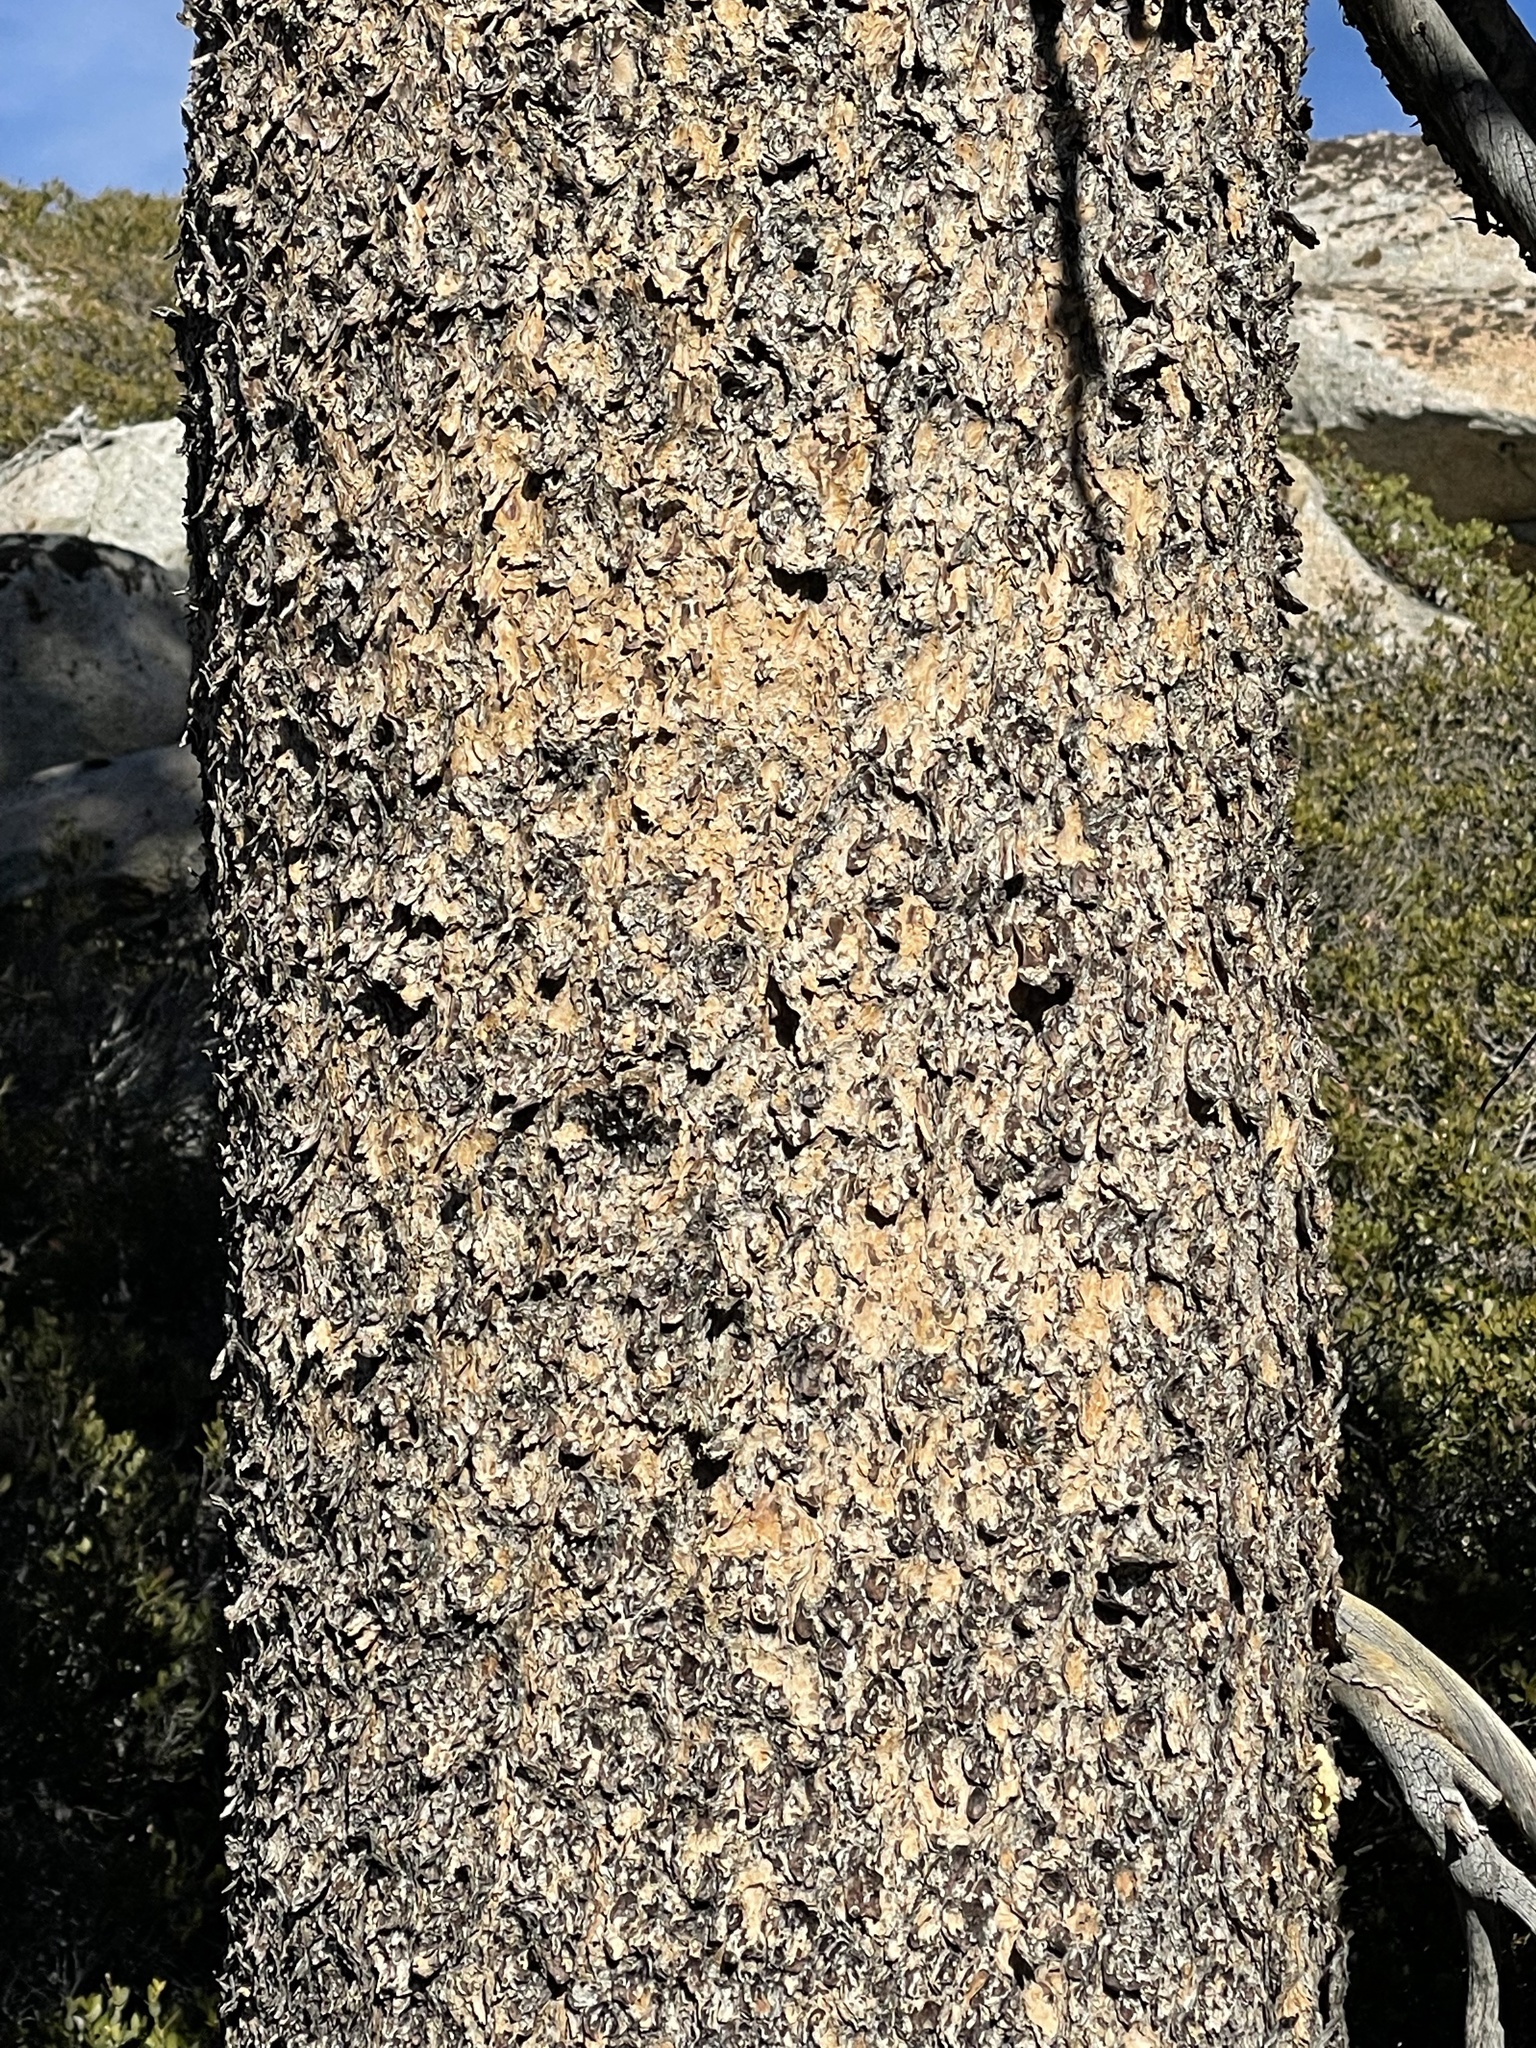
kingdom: Plantae
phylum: Tracheophyta
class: Pinopsida
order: Pinales
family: Pinaceae
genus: Pinus
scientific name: Pinus contorta
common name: Lodgepole pine
